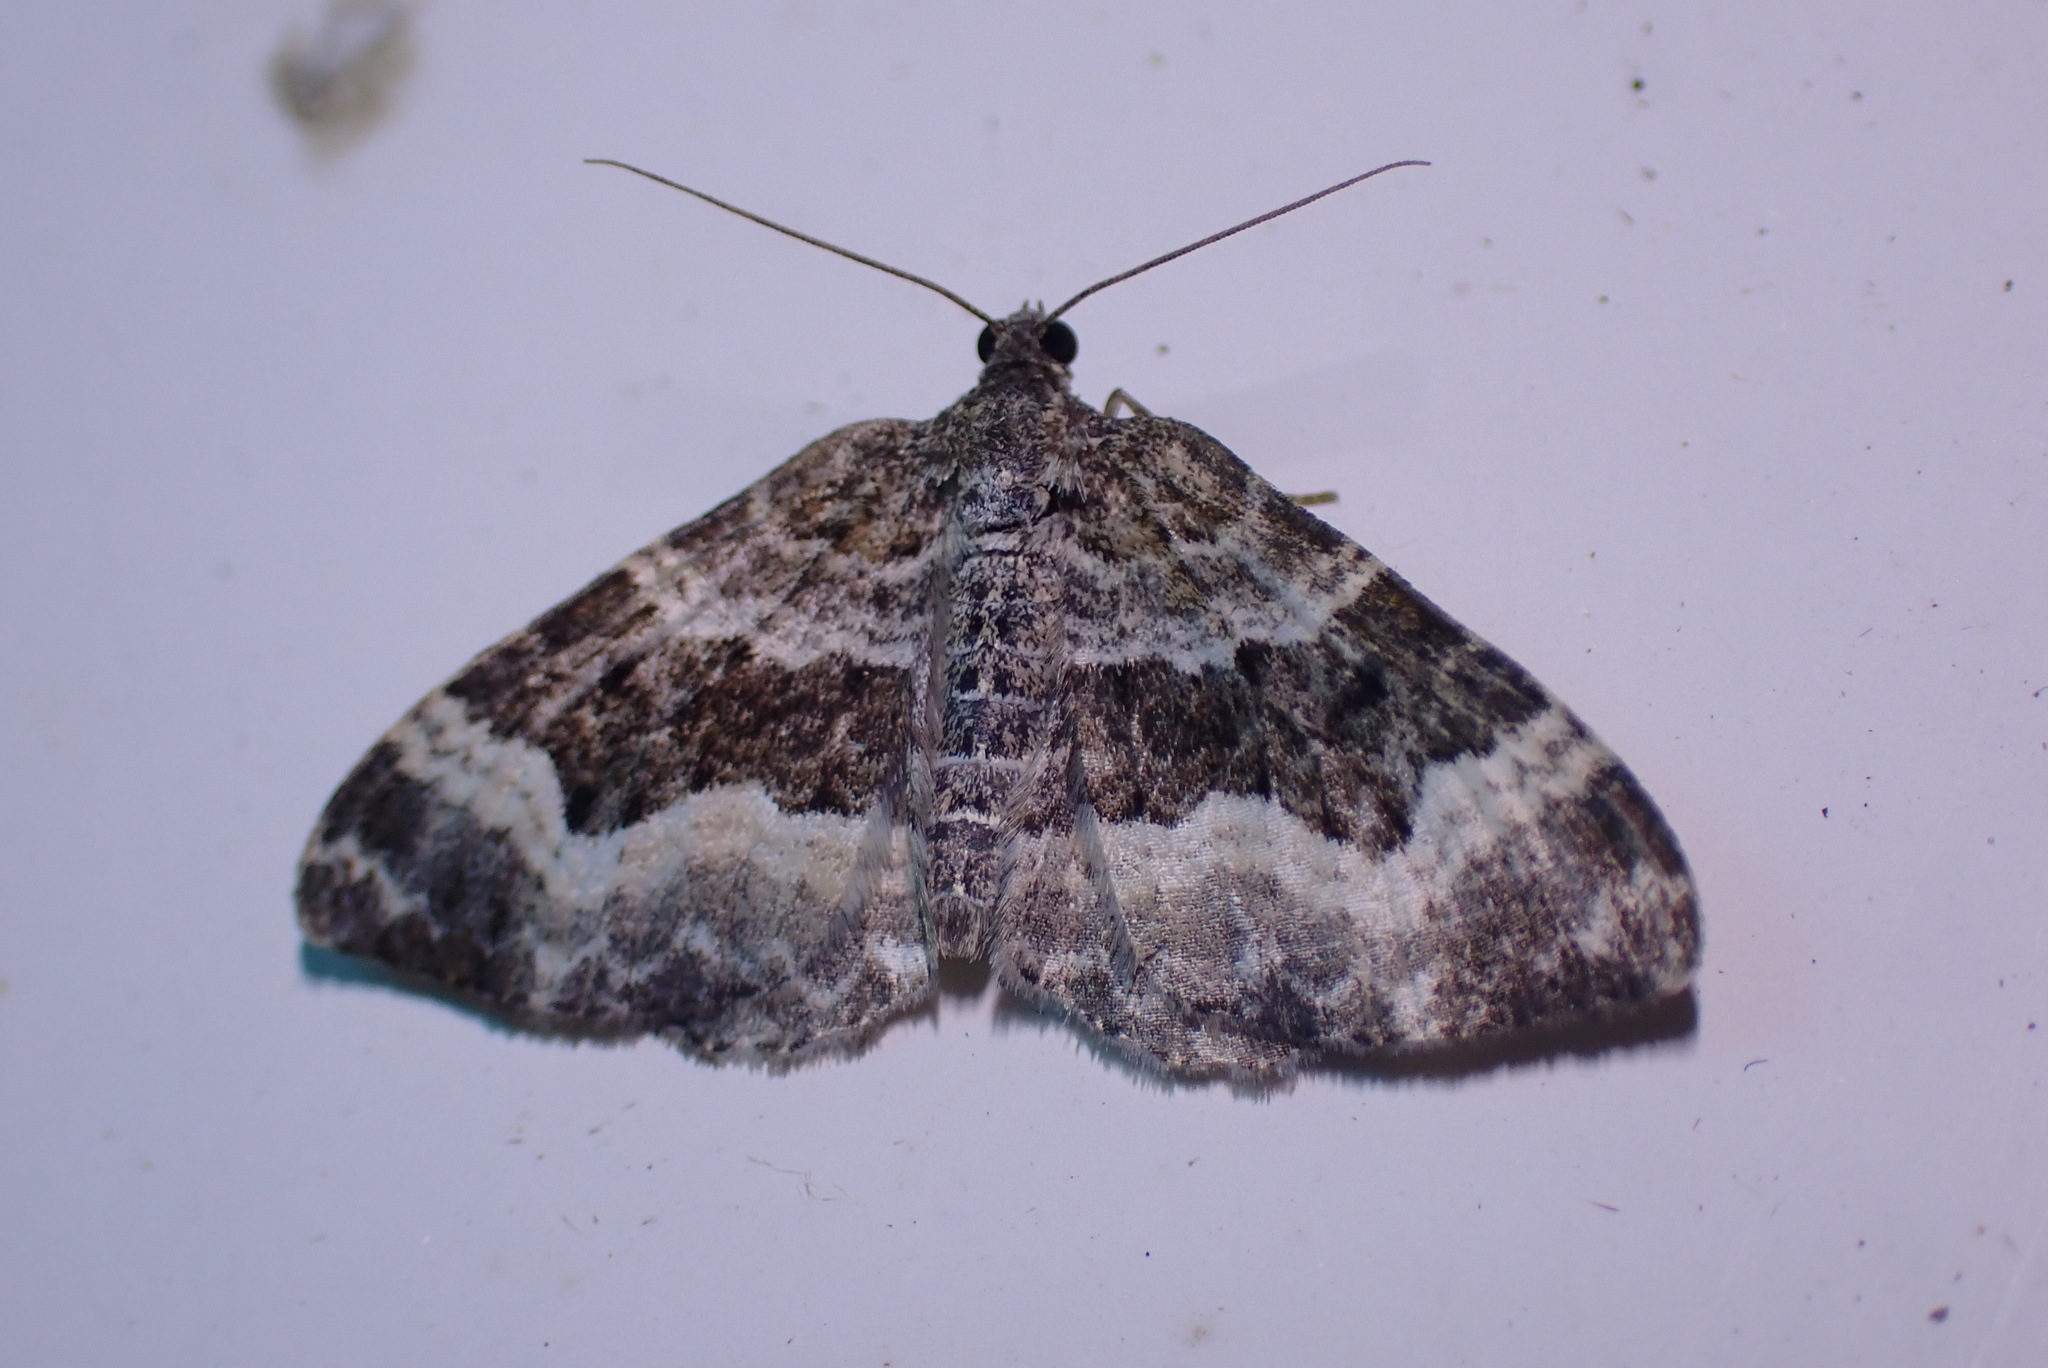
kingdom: Animalia
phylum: Arthropoda
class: Insecta
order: Lepidoptera
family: Geometridae
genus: Epirrhoe
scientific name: Epirrhoe alternata
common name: Common carpet
